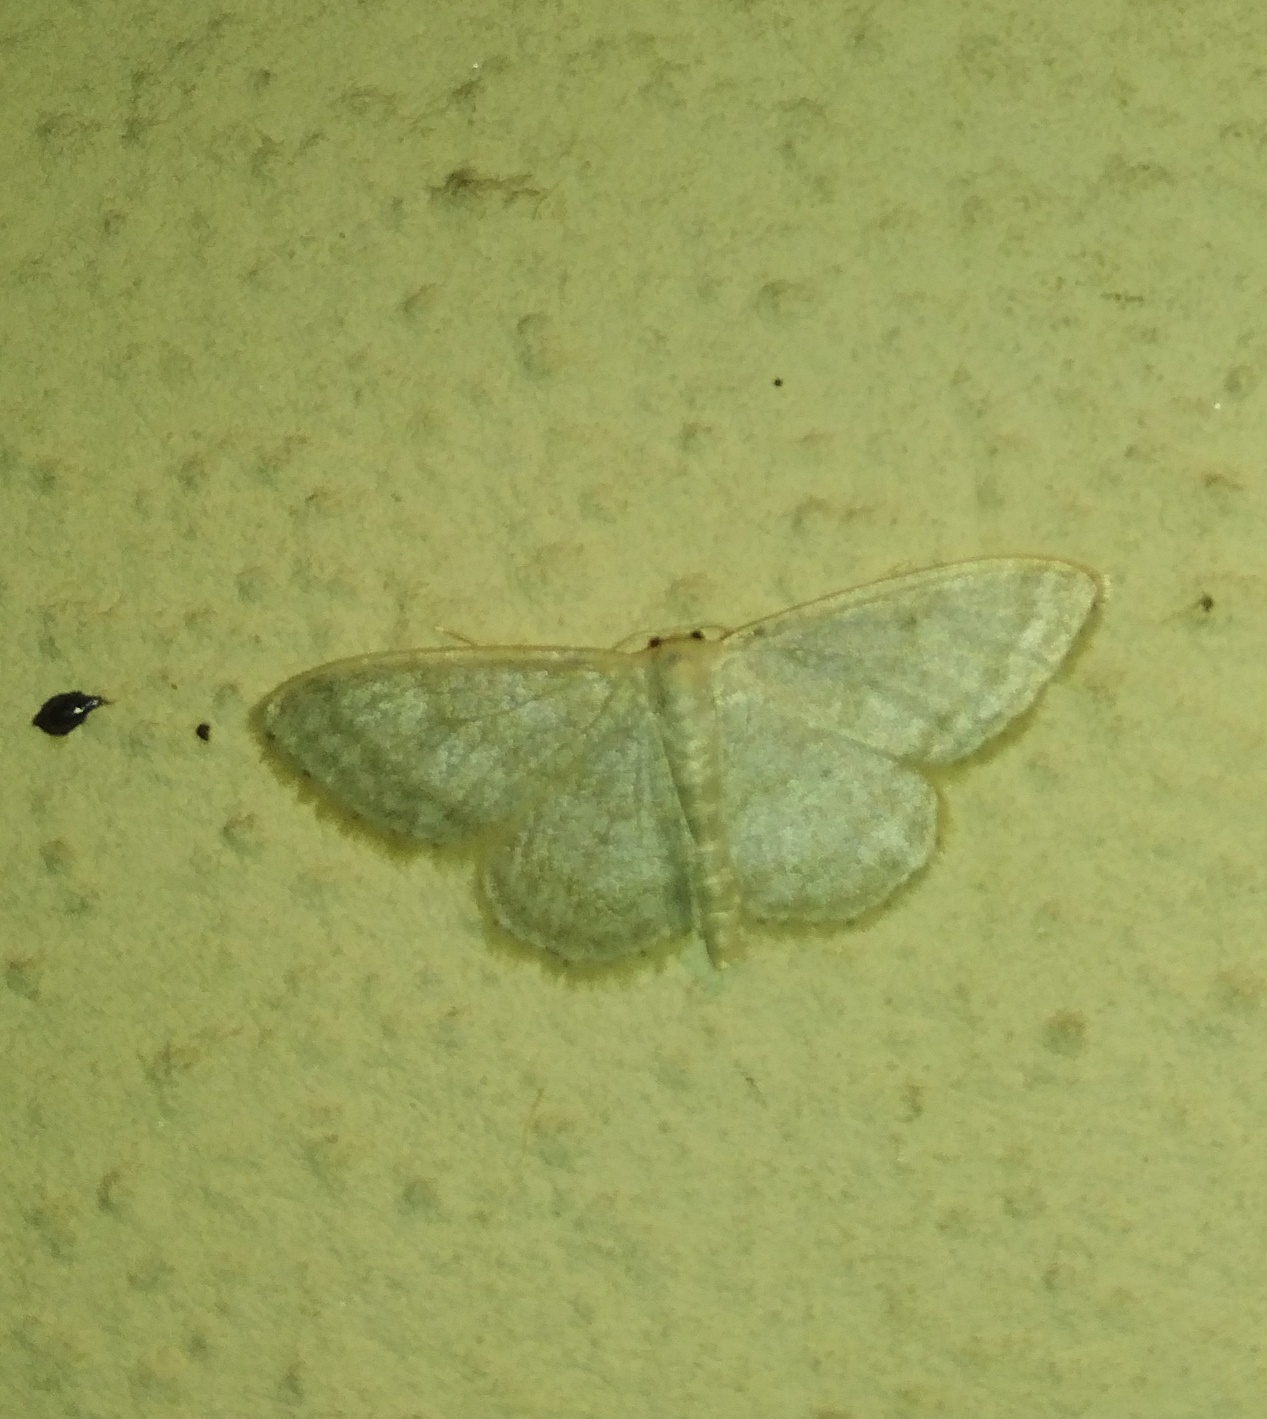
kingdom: Animalia
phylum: Arthropoda
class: Insecta
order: Lepidoptera
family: Geometridae
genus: Idaea
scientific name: Idaea subsericeata
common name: Satin wave
